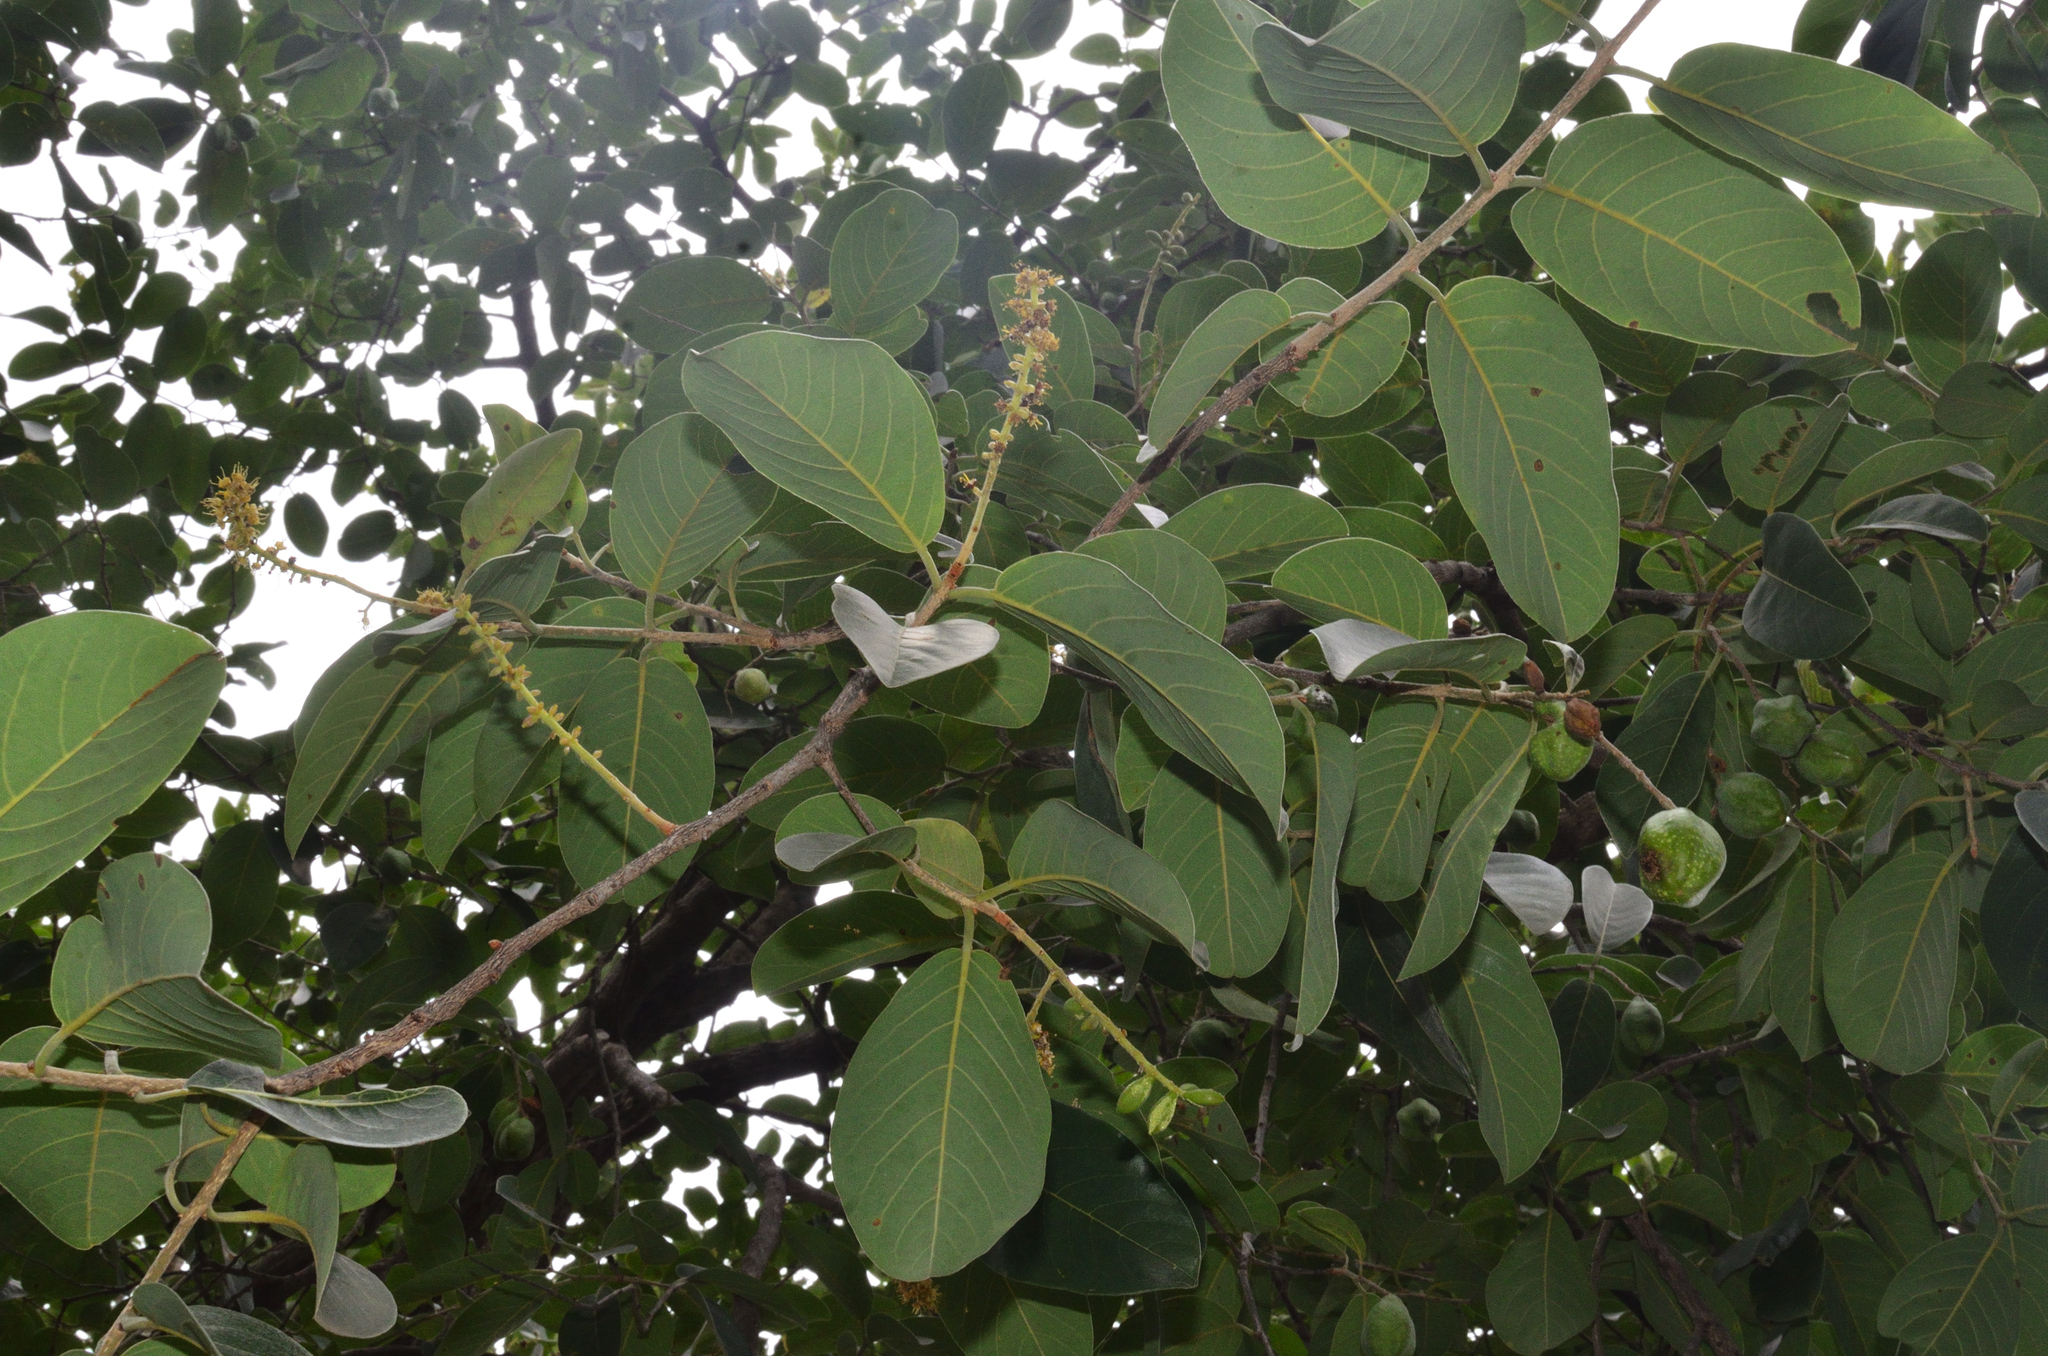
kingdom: Plantae
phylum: Tracheophyta
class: Magnoliopsida
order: Myrtales
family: Combretaceae
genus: Terminalia
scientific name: Terminalia chebula
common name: Myrobalan
